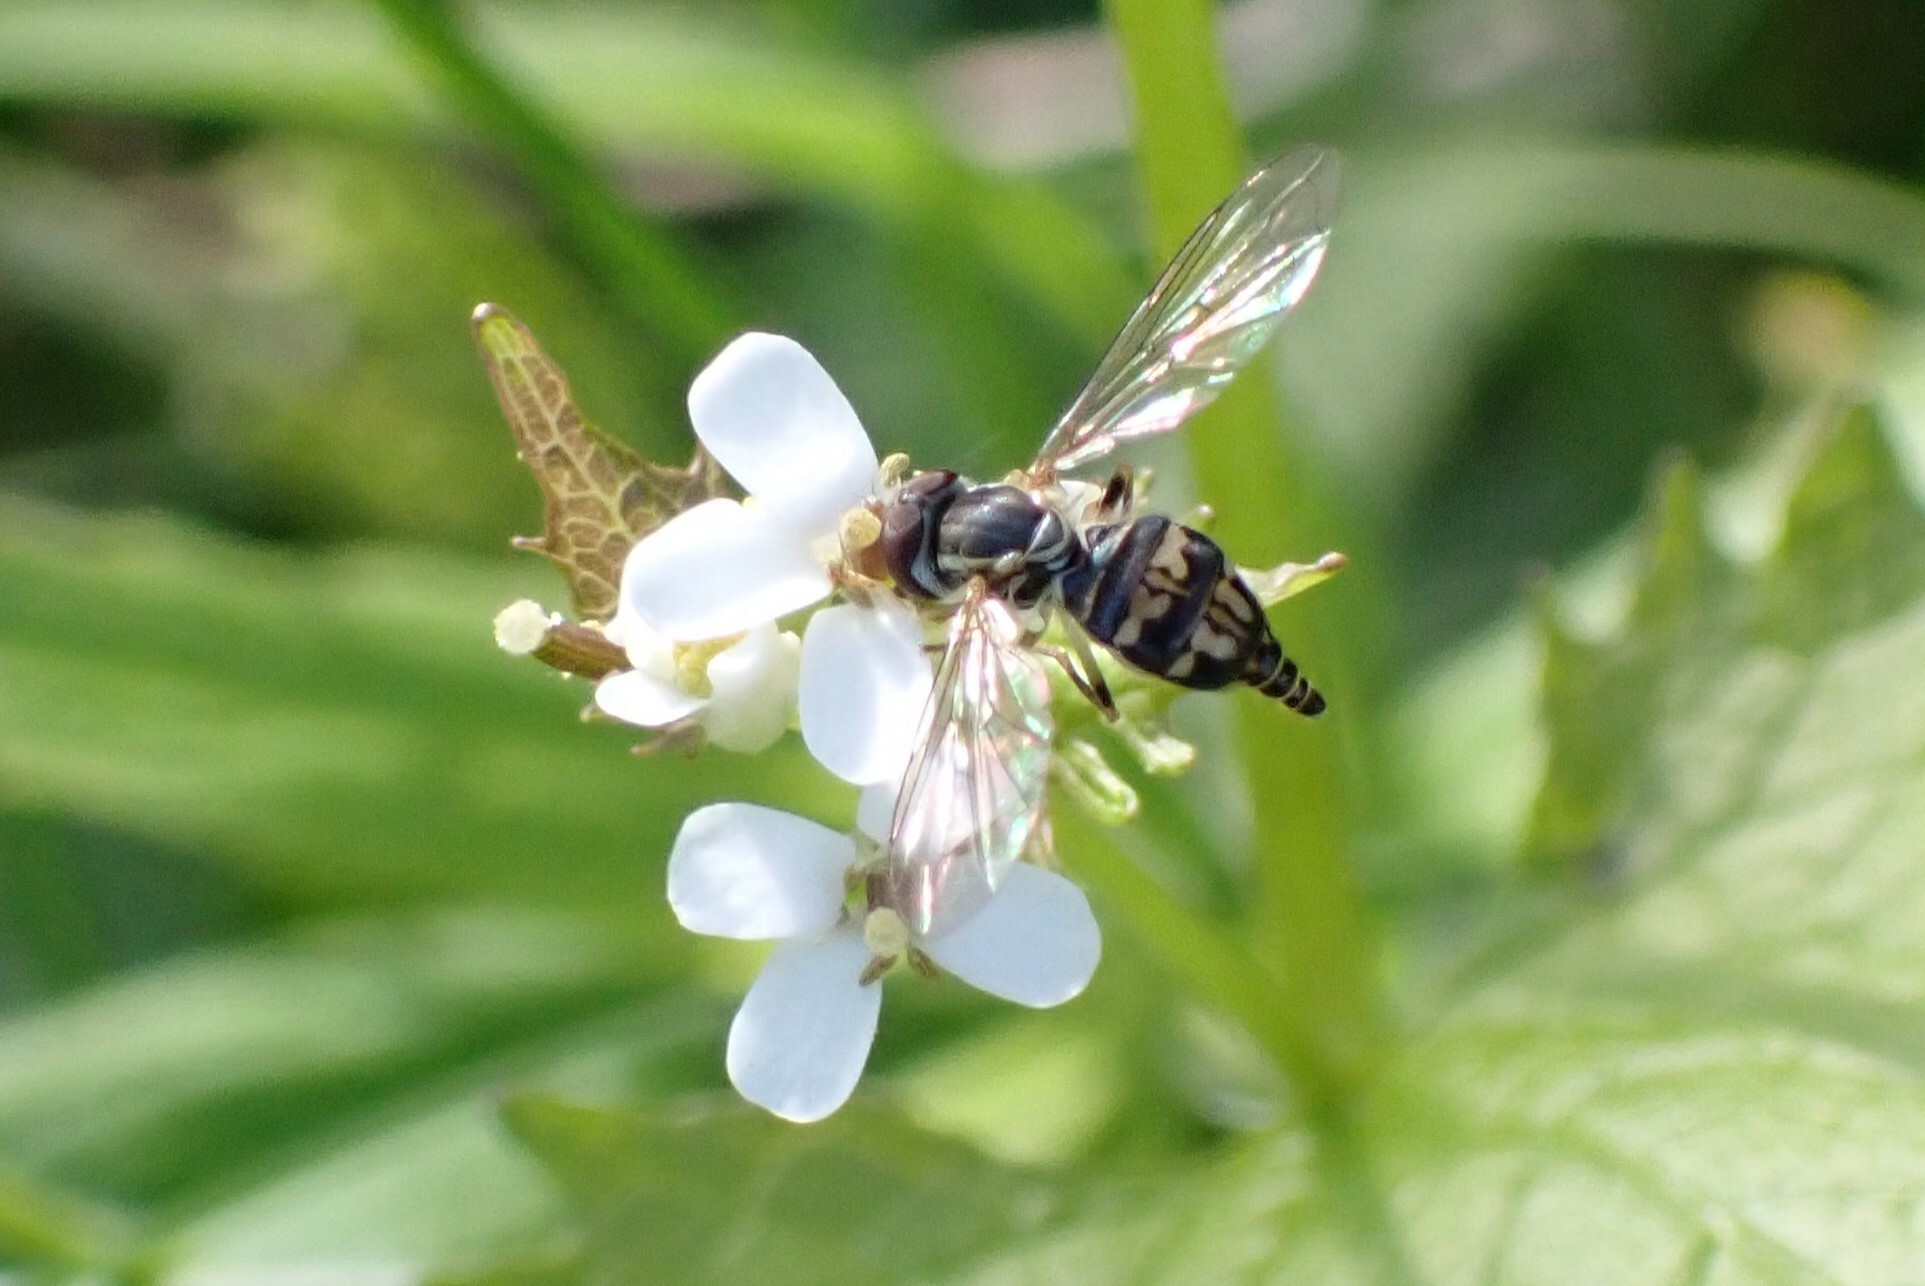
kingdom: Animalia
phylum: Arthropoda
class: Insecta
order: Diptera
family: Syrphidae
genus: Toxomerus
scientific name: Toxomerus geminatus
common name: Eastern calligrapher
